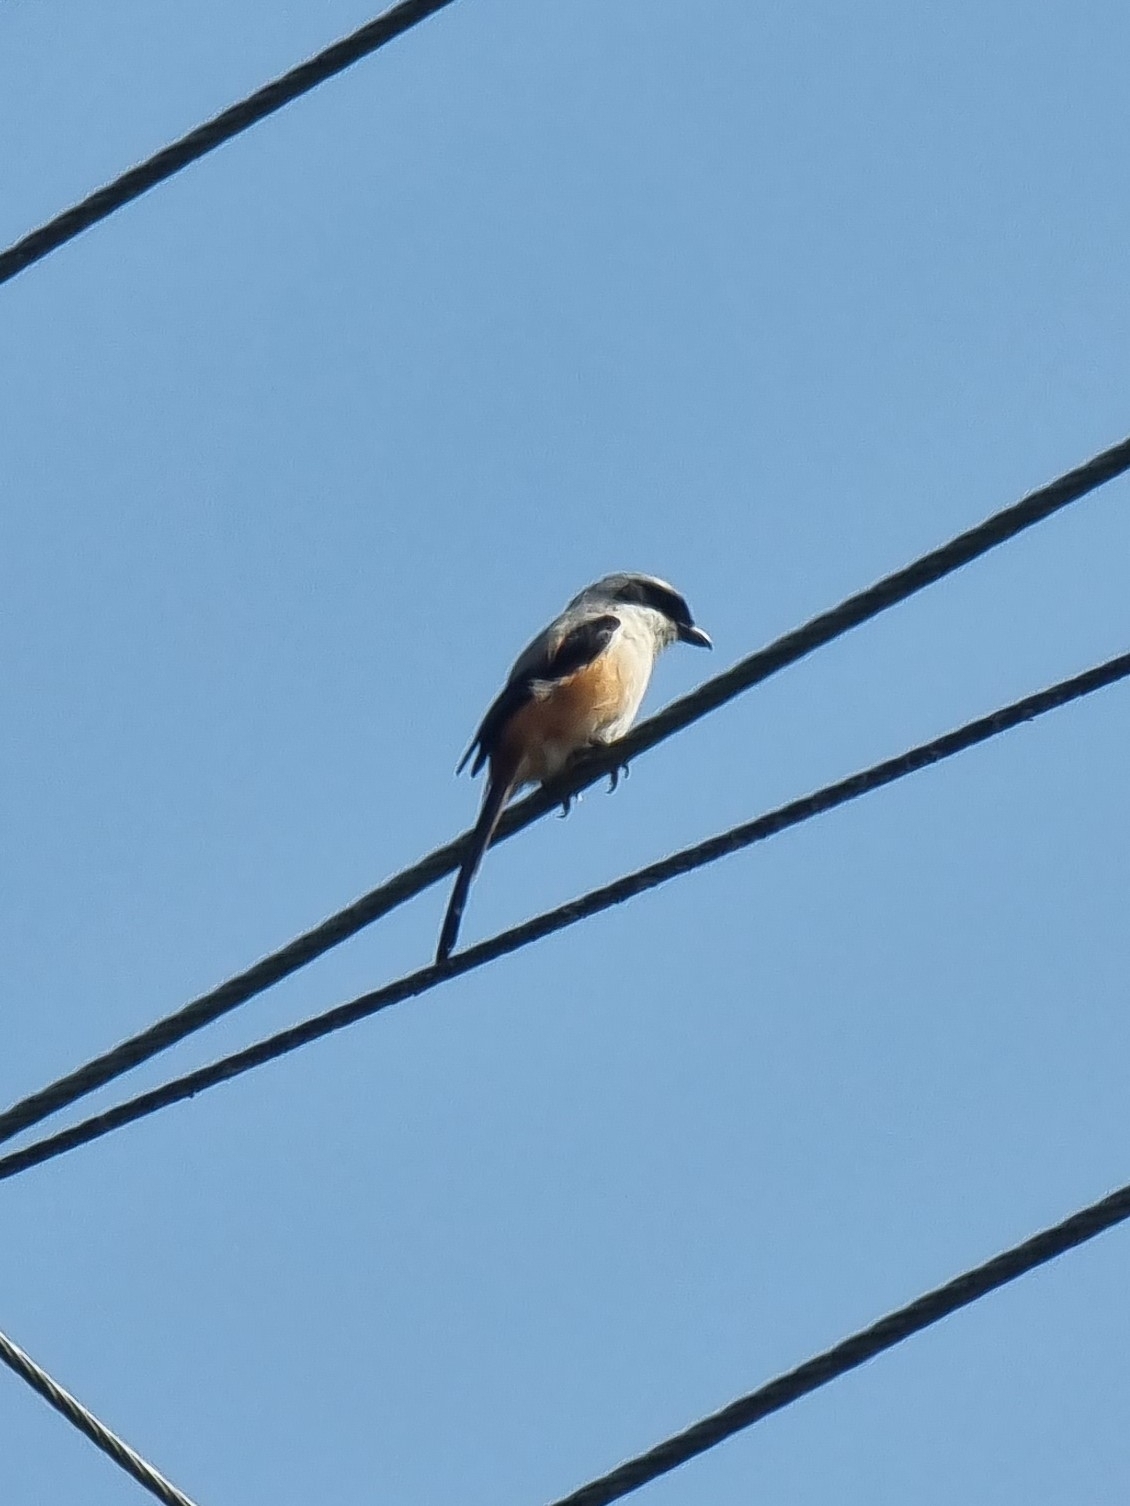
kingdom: Animalia
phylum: Chordata
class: Aves
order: Passeriformes
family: Laniidae
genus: Lanius
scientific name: Lanius schach
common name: Long-tailed shrike
